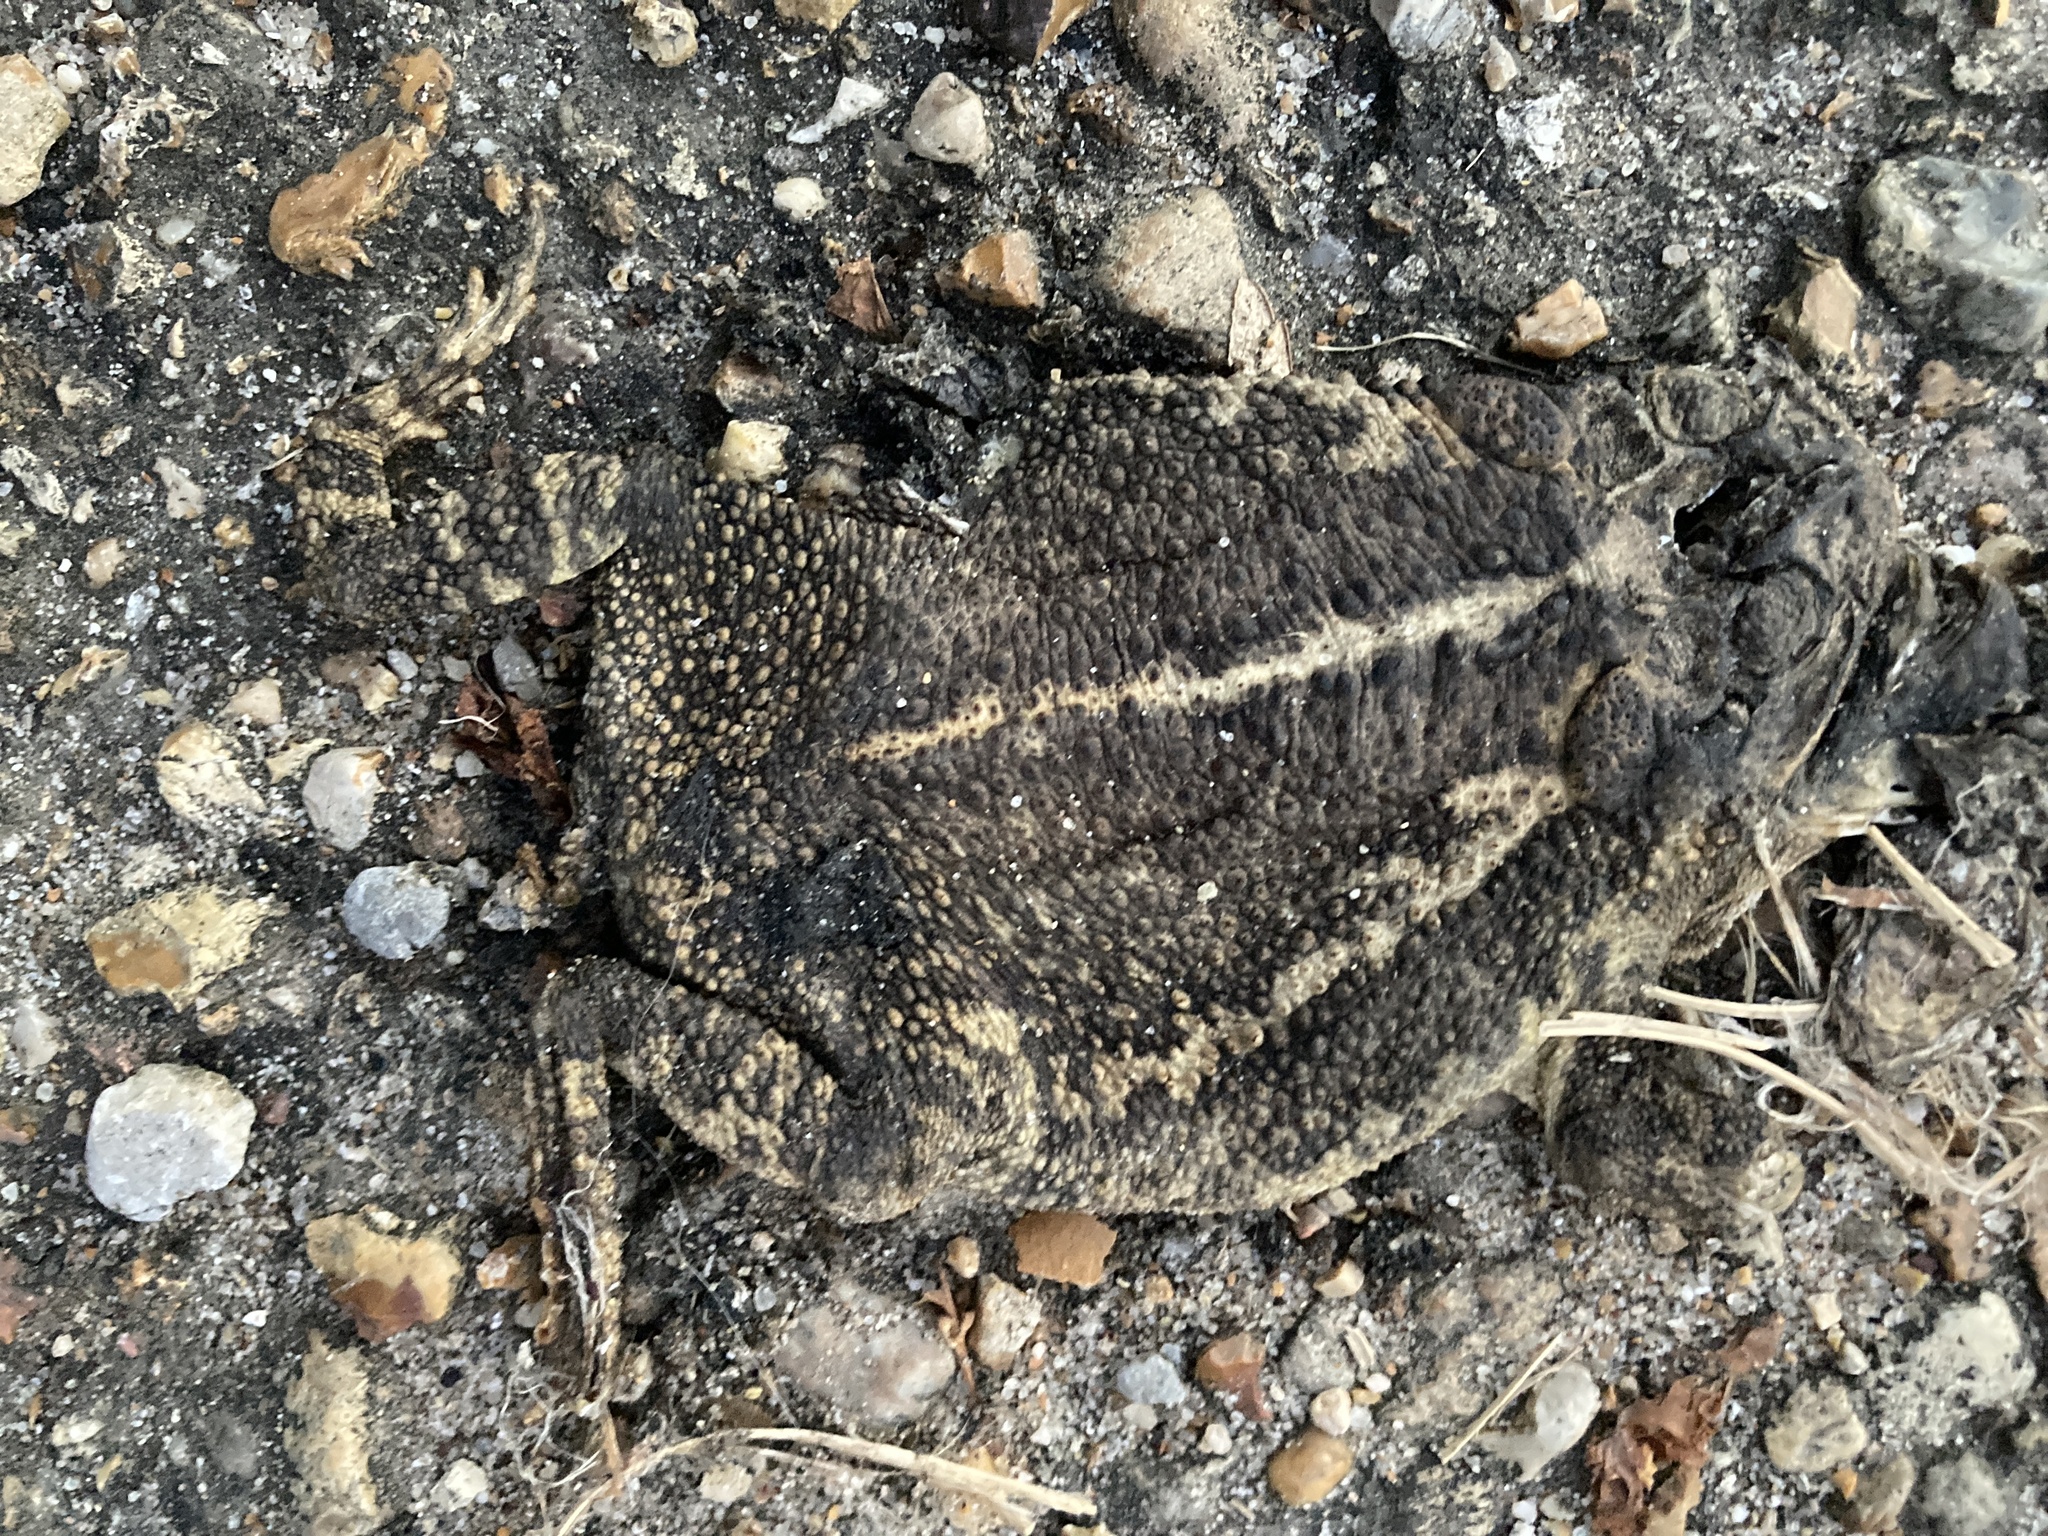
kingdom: Animalia
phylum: Chordata
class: Amphibia
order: Anura
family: Bufonidae
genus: Incilius
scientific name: Incilius nebulifer
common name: Gulf coast toad
